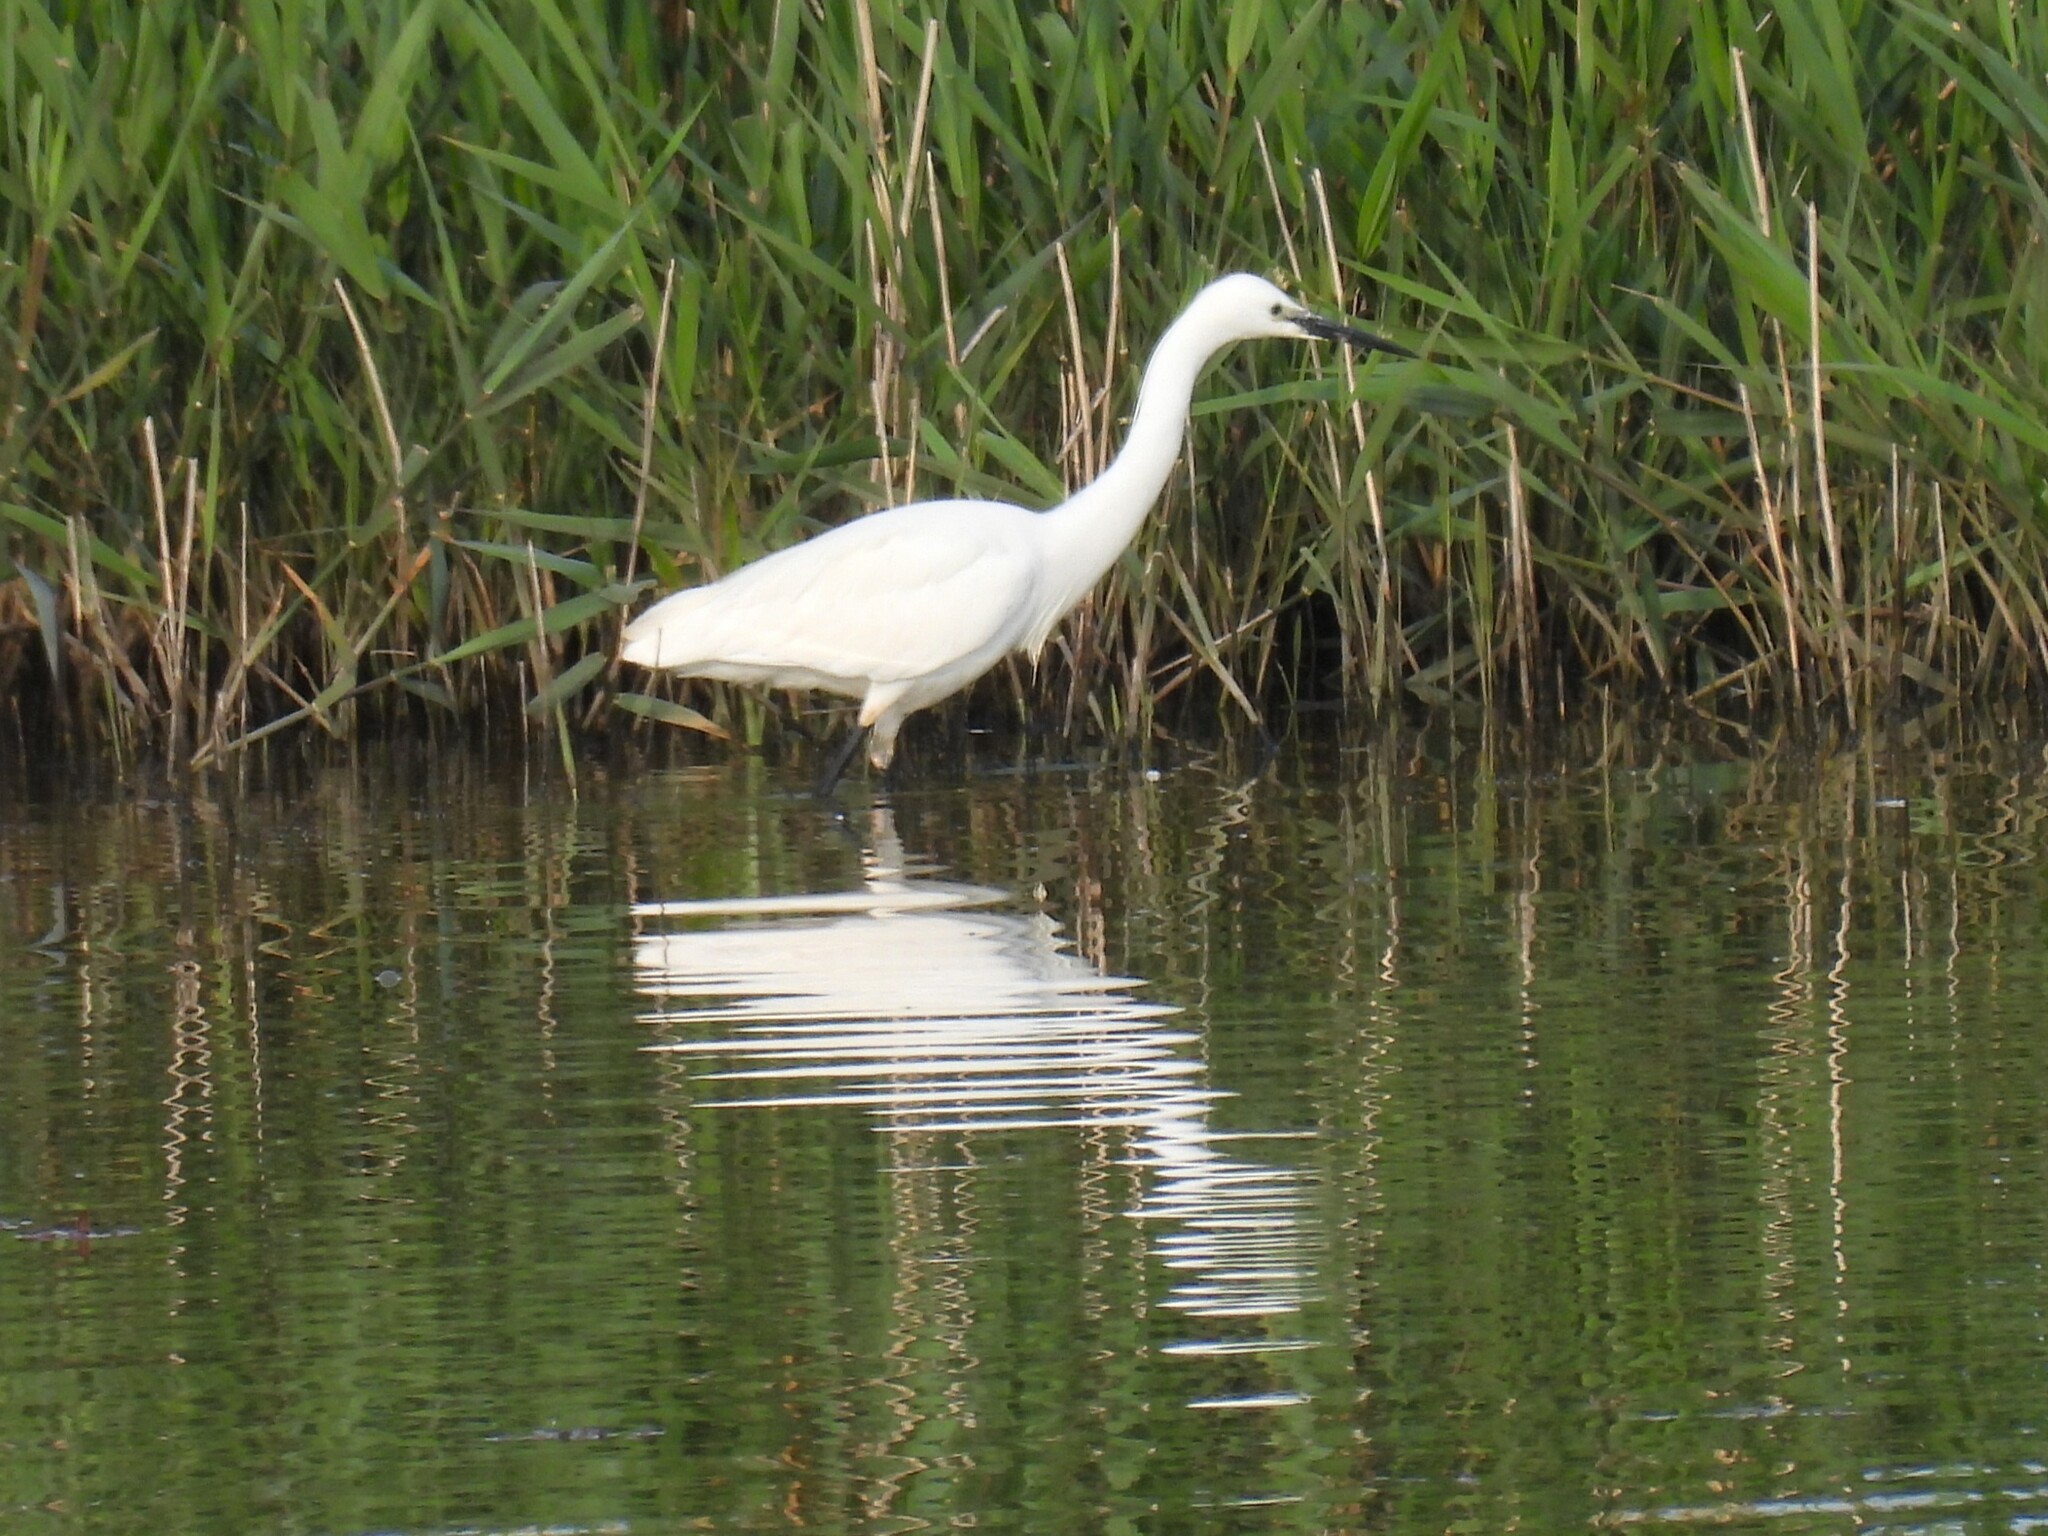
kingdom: Animalia
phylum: Chordata
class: Aves
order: Pelecaniformes
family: Ardeidae
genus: Egretta
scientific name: Egretta garzetta
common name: Little egret
